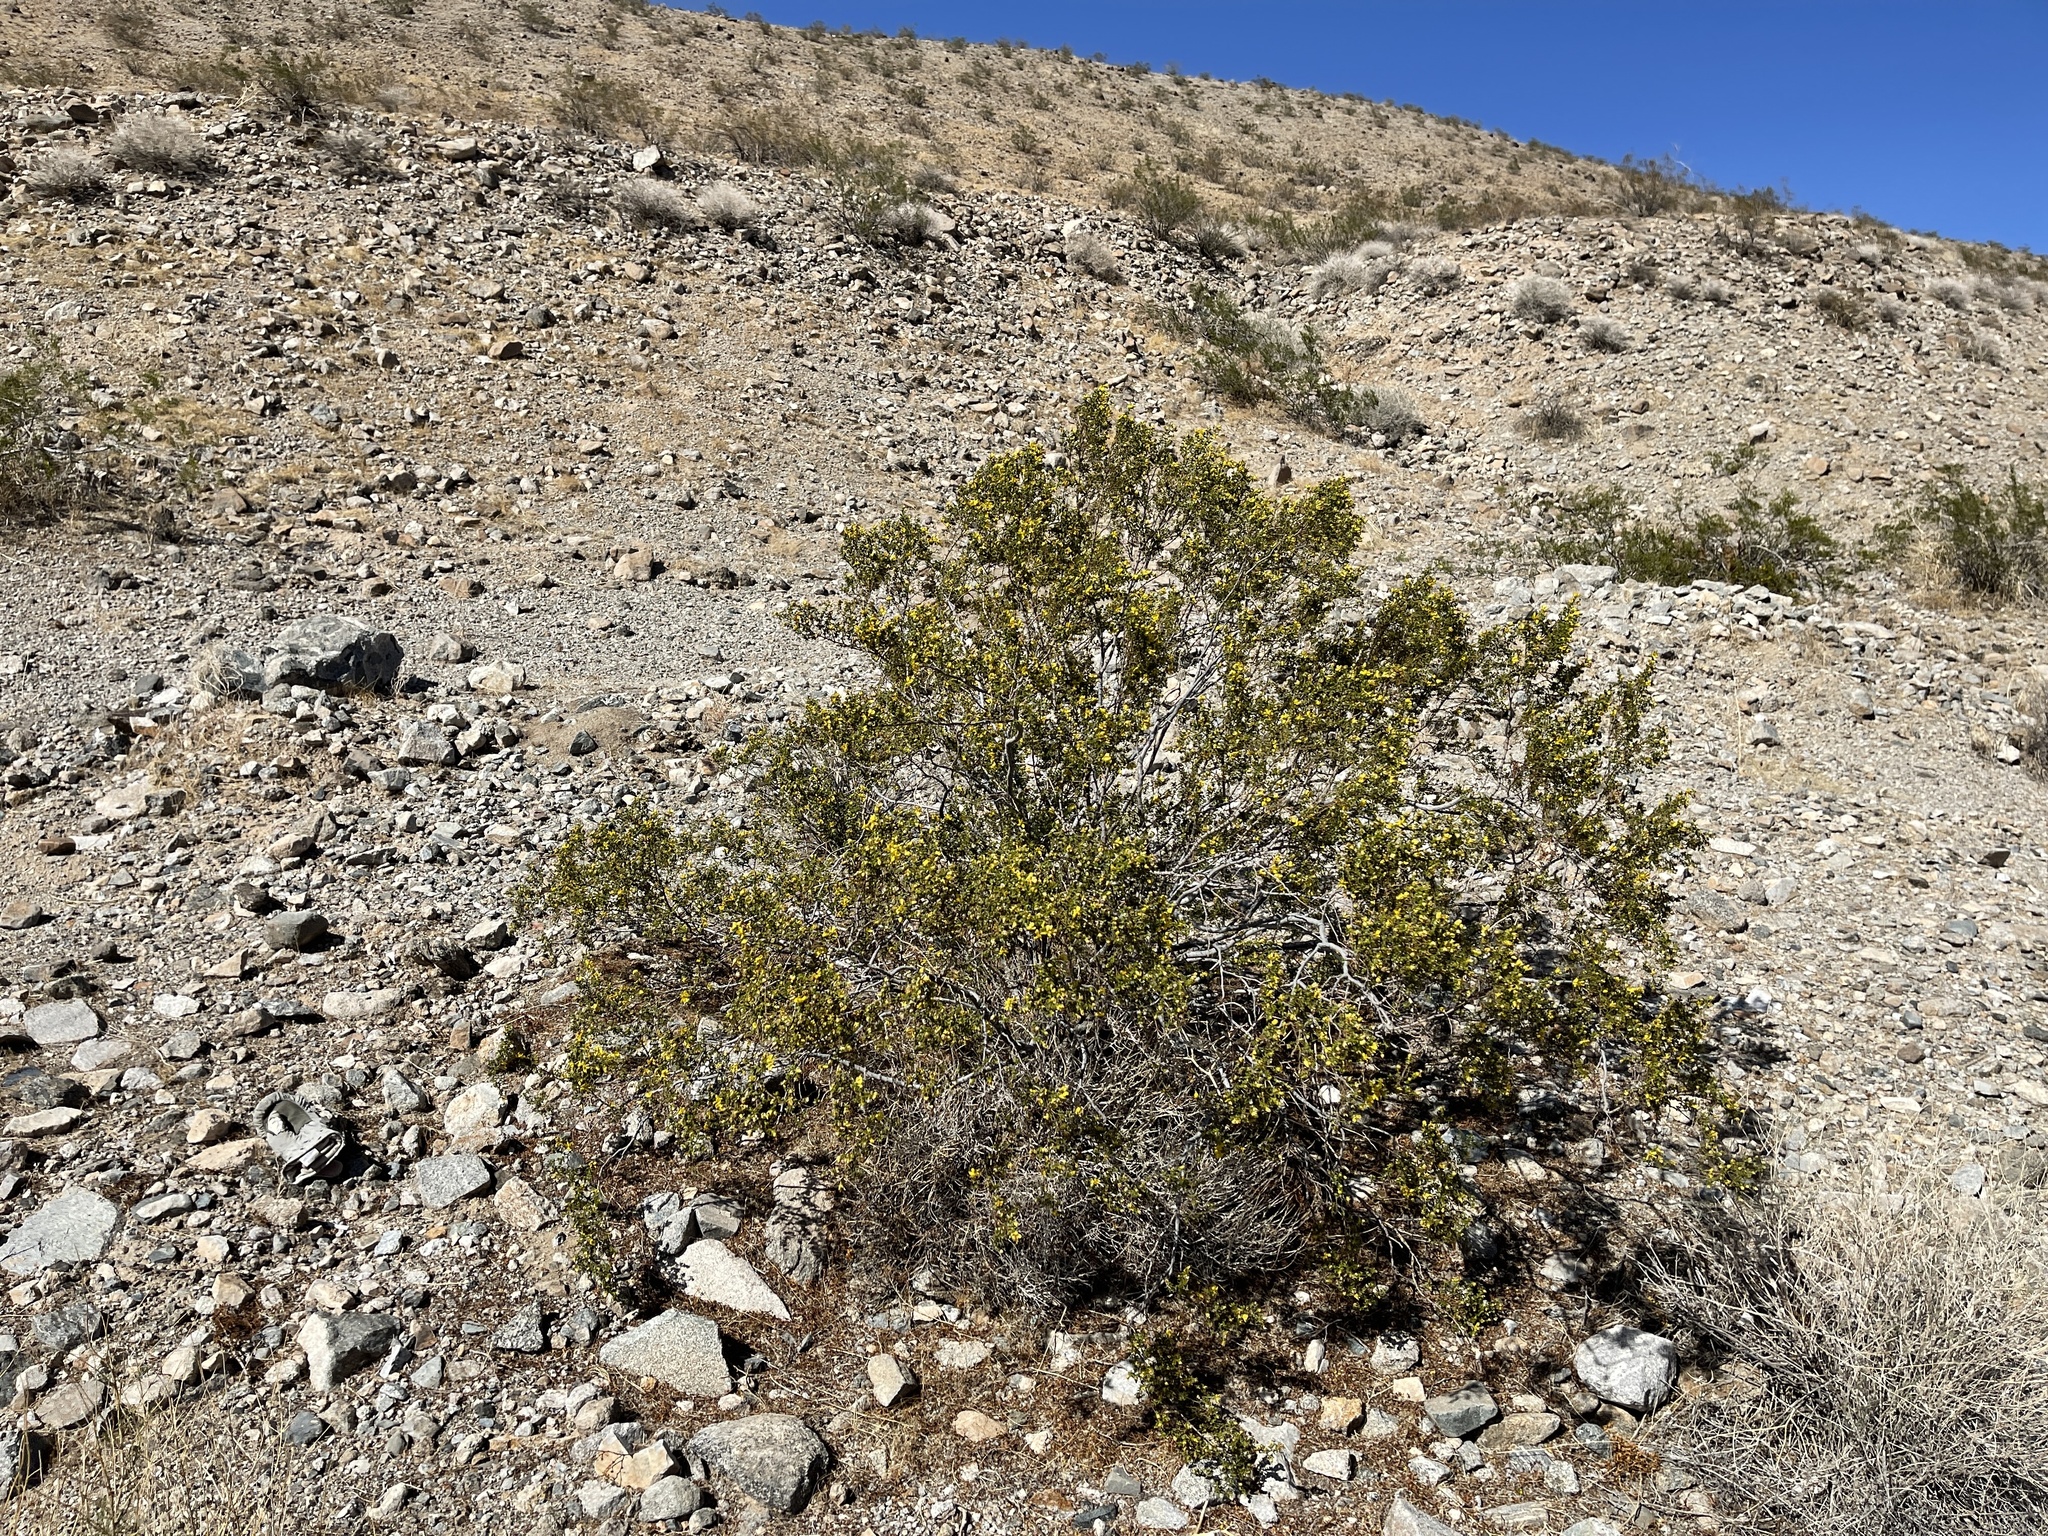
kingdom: Plantae
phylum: Tracheophyta
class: Magnoliopsida
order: Zygophyllales
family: Zygophyllaceae
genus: Larrea
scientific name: Larrea tridentata
